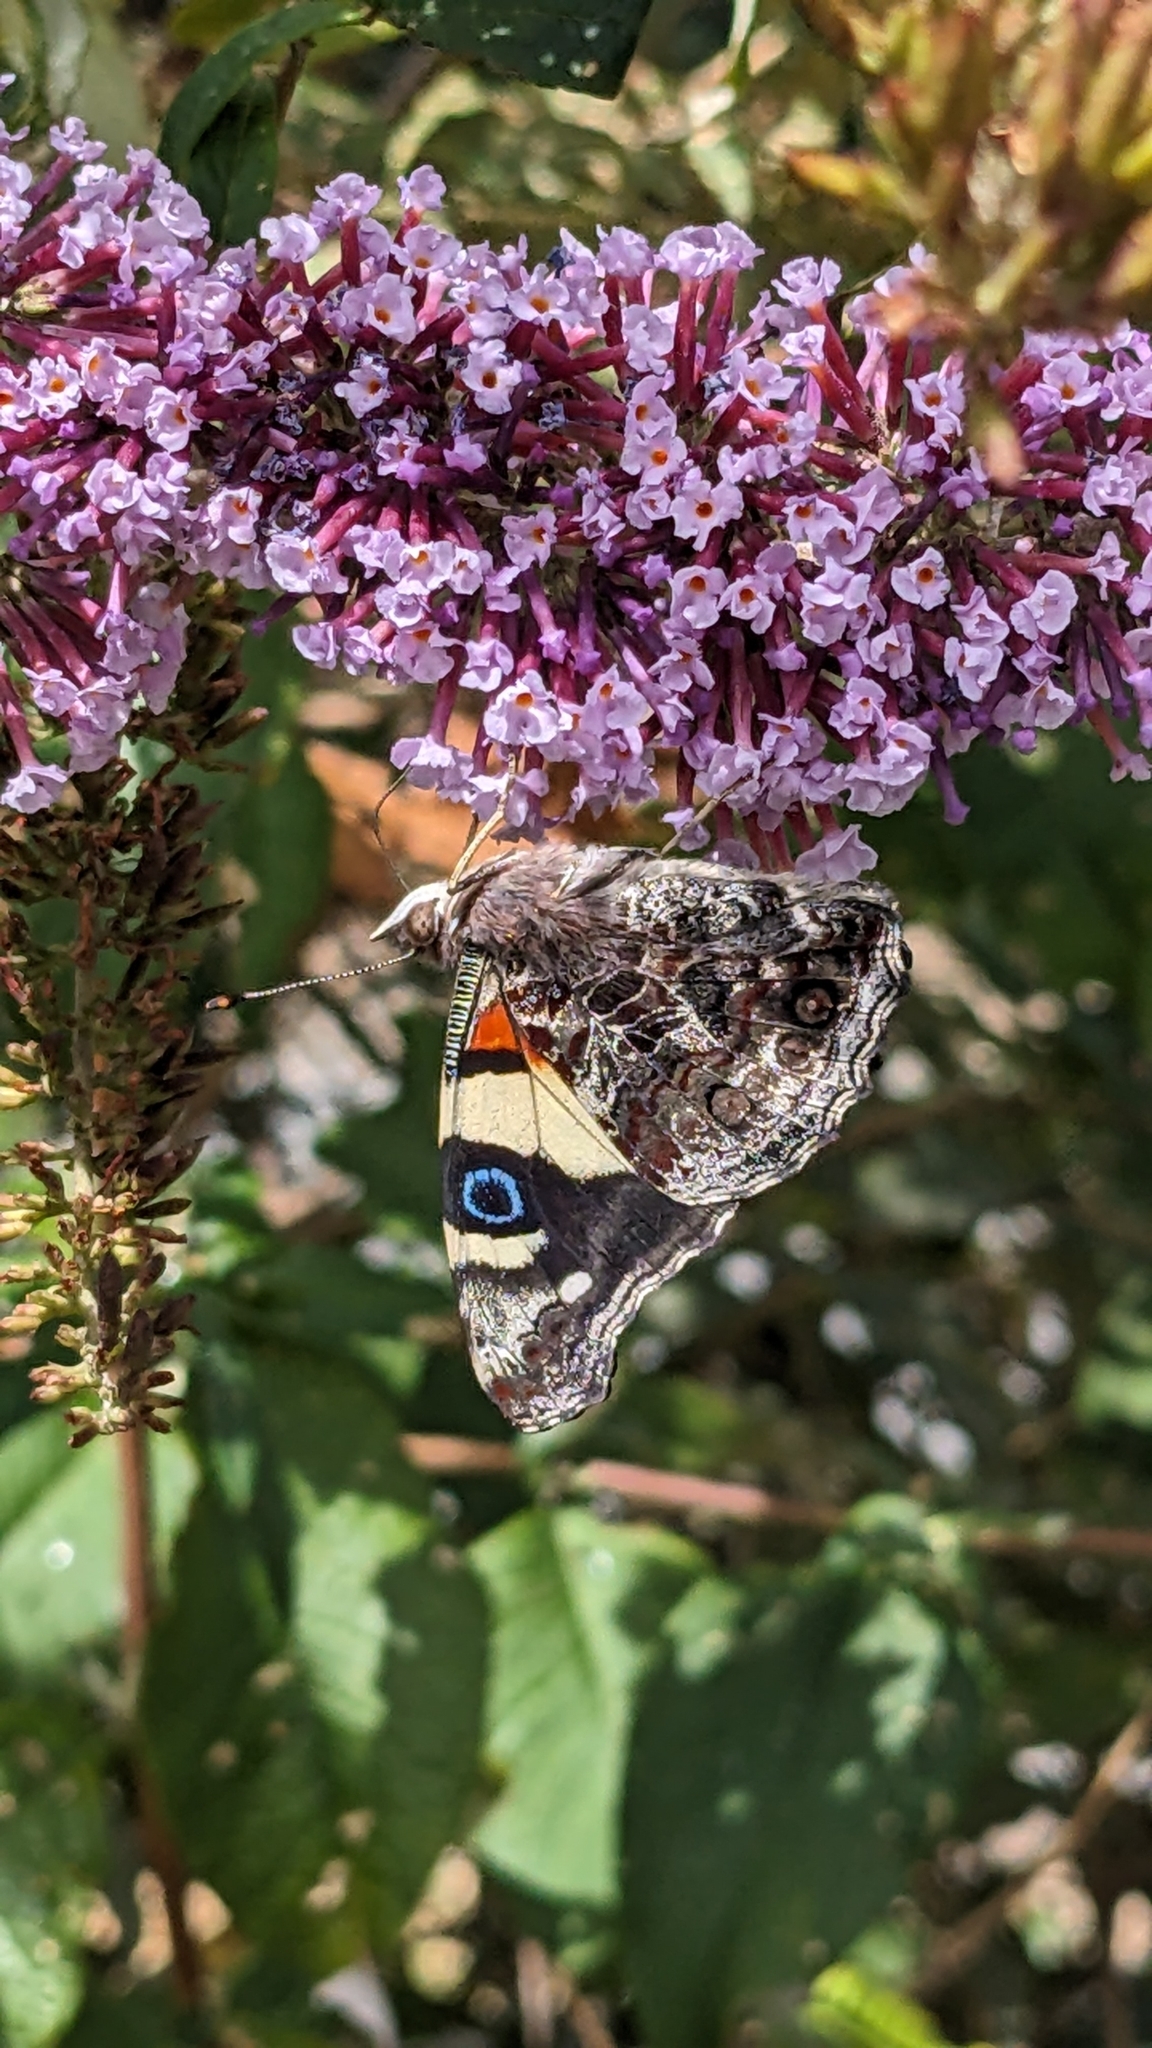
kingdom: Animalia
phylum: Arthropoda
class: Insecta
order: Lepidoptera
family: Nymphalidae
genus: Vanessa
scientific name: Vanessa itea
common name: Yellow admiral
